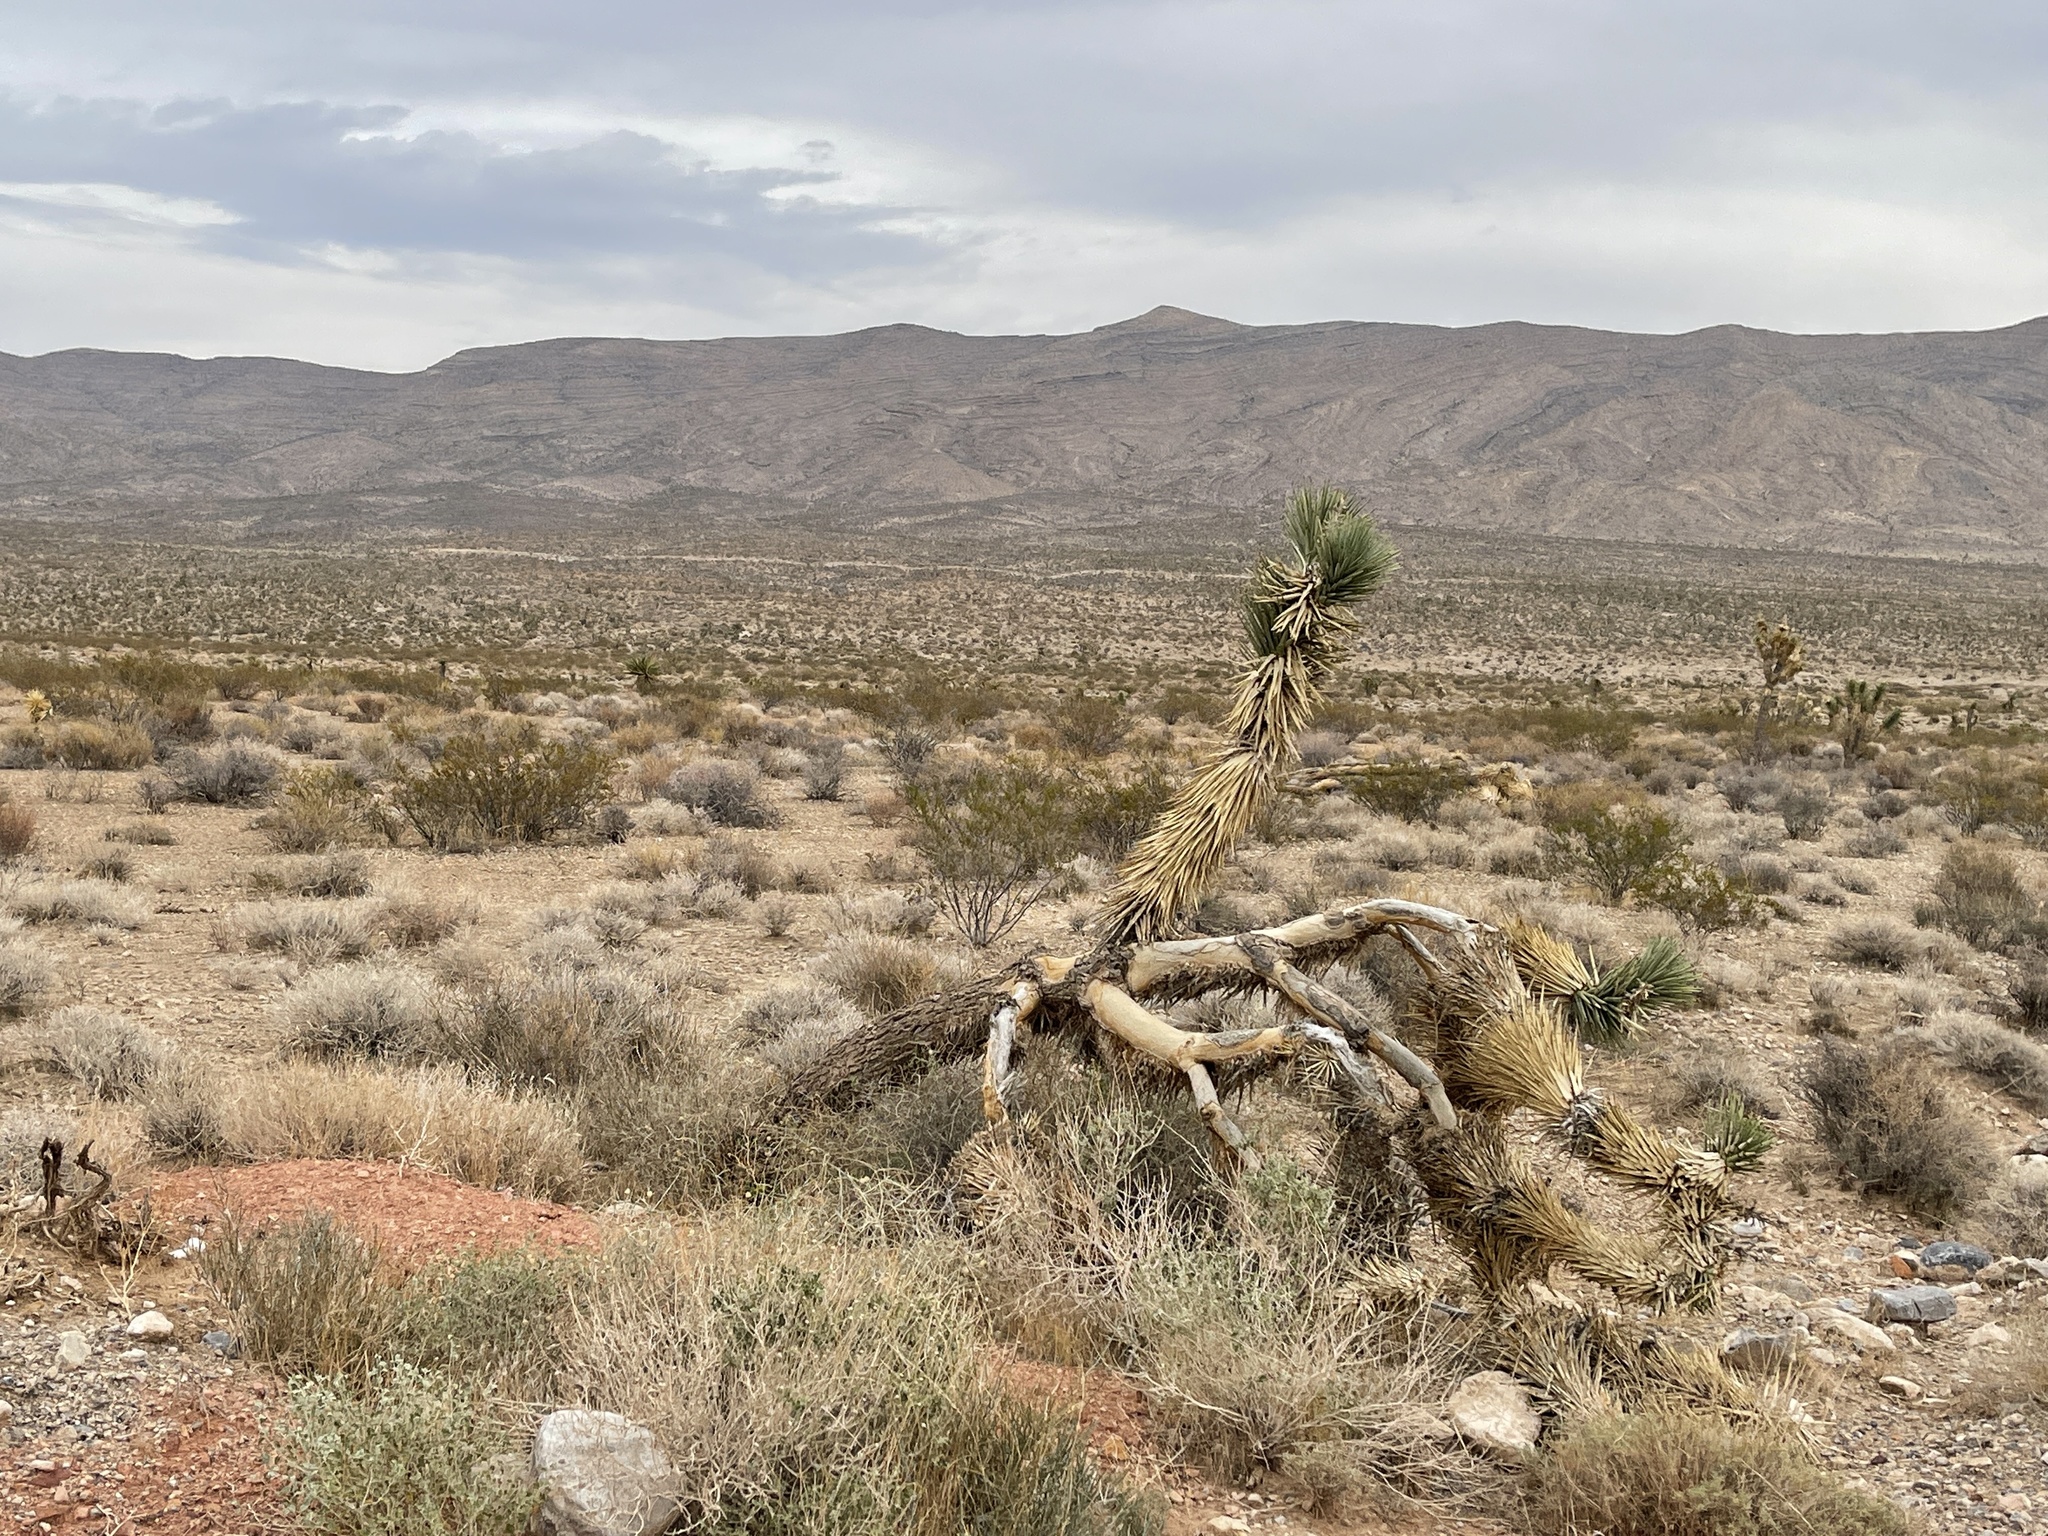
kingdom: Plantae
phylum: Tracheophyta
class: Liliopsida
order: Asparagales
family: Asparagaceae
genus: Yucca
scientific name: Yucca brevifolia
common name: Joshua tree
